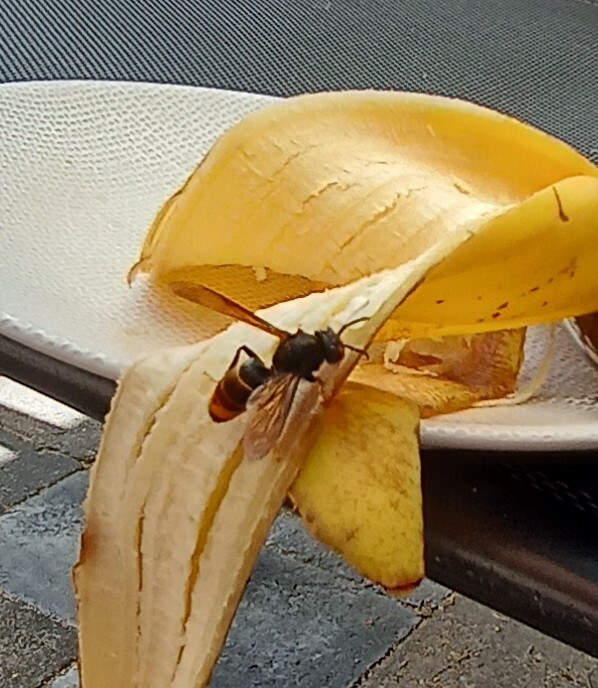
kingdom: Animalia
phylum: Arthropoda
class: Insecta
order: Hymenoptera
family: Vespidae
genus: Vespa
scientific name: Vespa velutina
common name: Asian hornet
